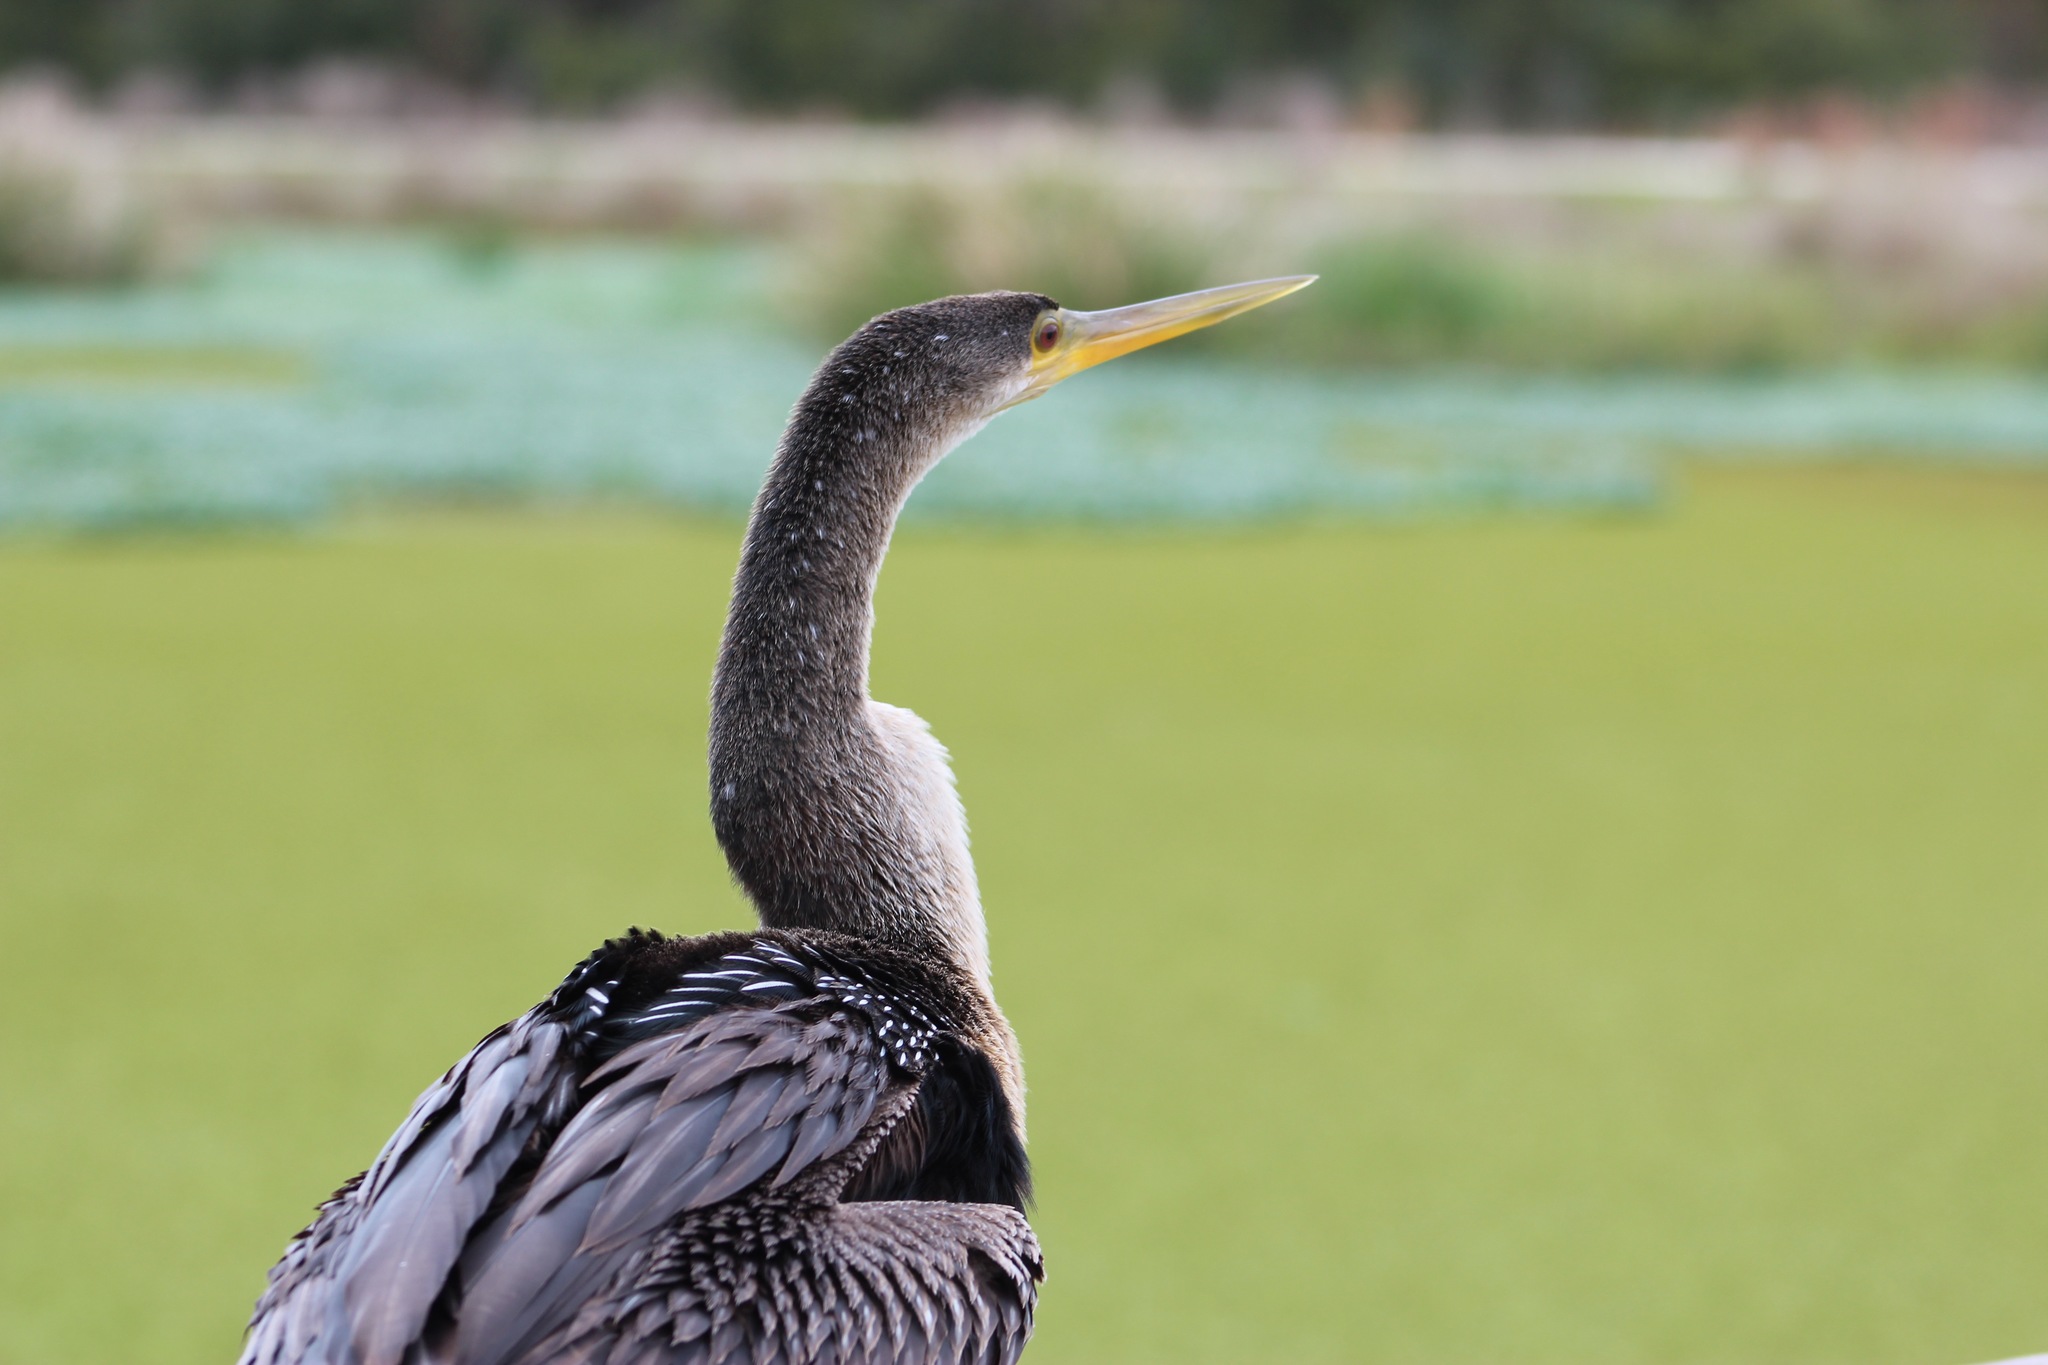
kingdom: Animalia
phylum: Chordata
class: Aves
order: Suliformes
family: Anhingidae
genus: Anhinga
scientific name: Anhinga anhinga
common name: Anhinga
